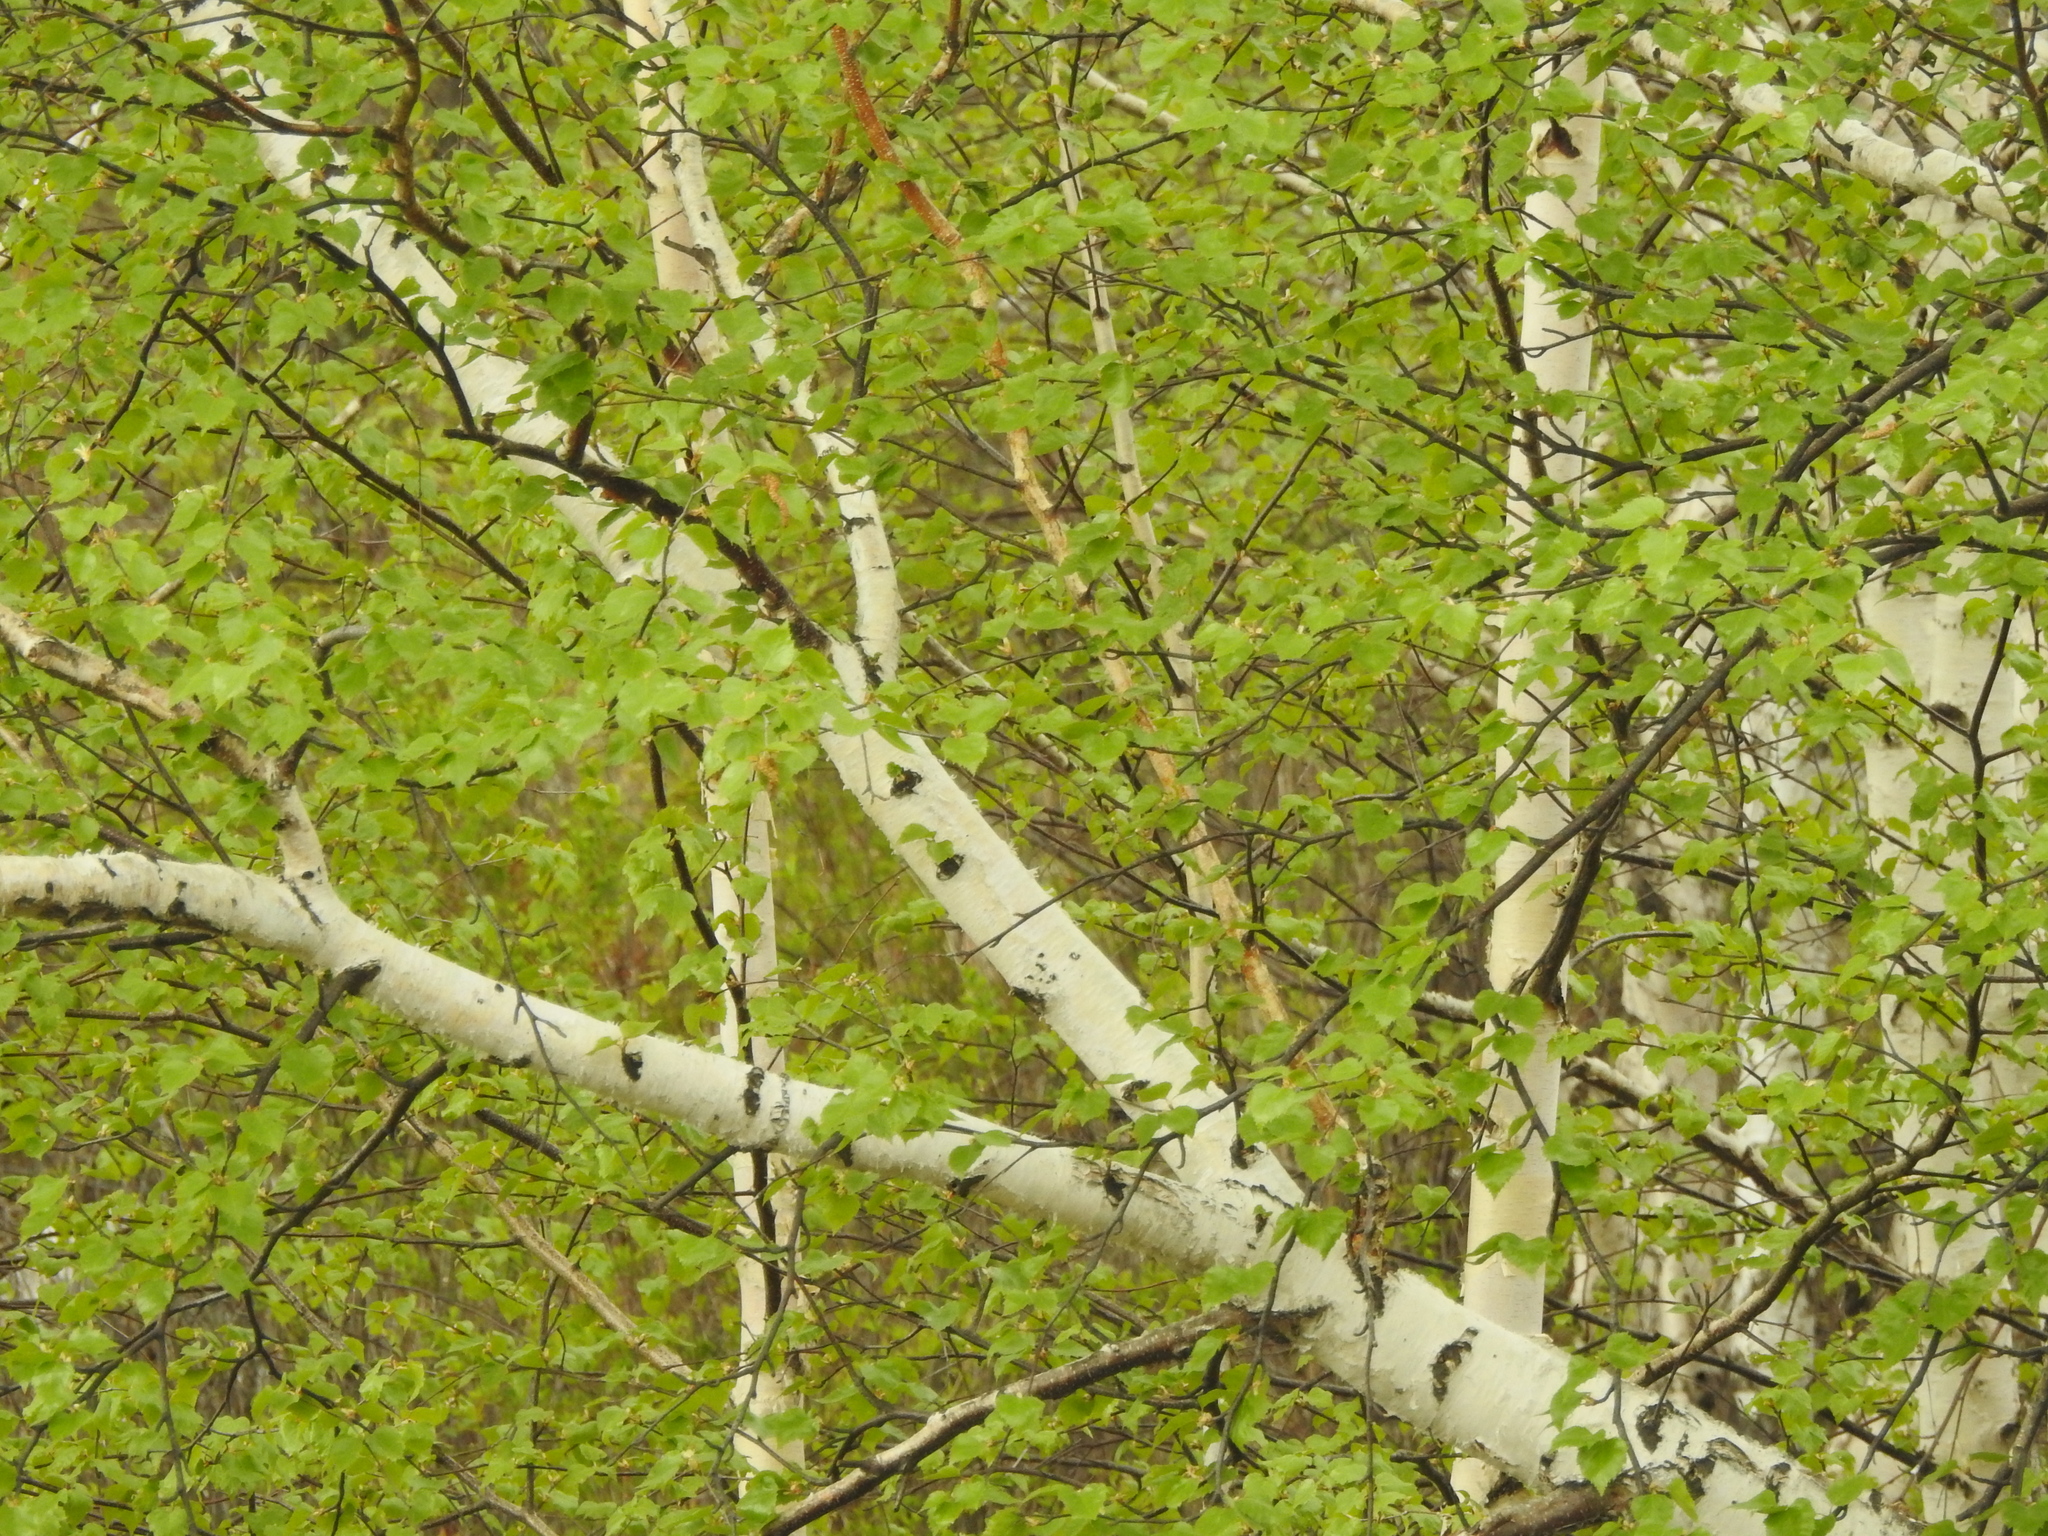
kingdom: Plantae
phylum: Tracheophyta
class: Magnoliopsida
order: Fagales
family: Betulaceae
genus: Betula
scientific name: Betula pendula
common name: Silver birch
